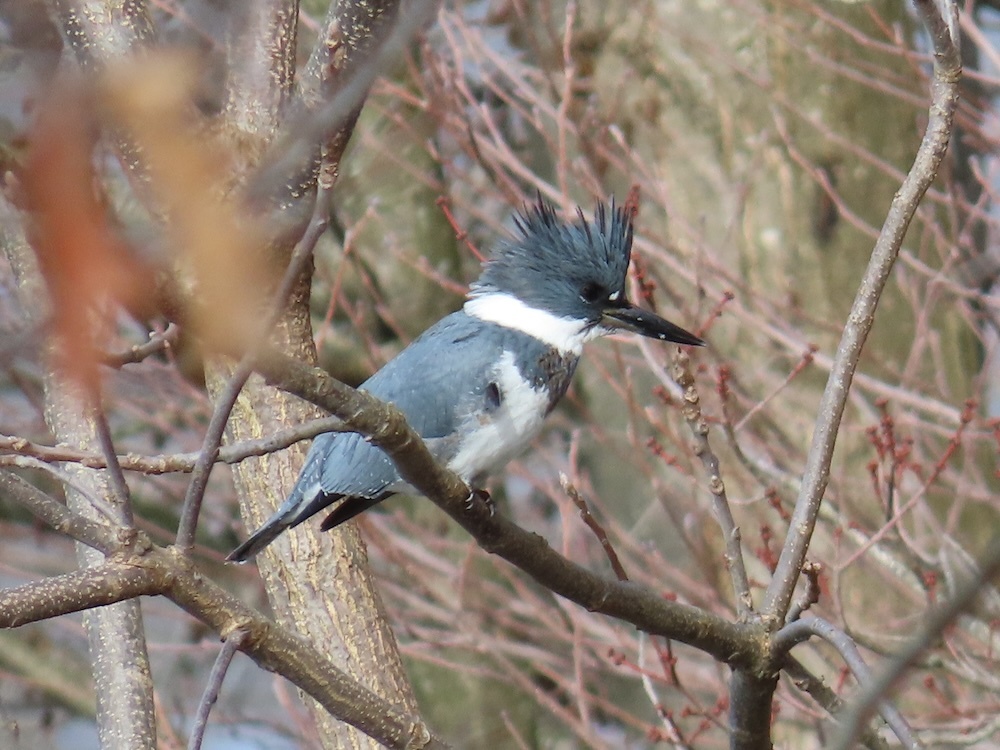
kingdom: Animalia
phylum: Chordata
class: Aves
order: Coraciiformes
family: Alcedinidae
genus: Megaceryle
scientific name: Megaceryle alcyon
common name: Belted kingfisher
